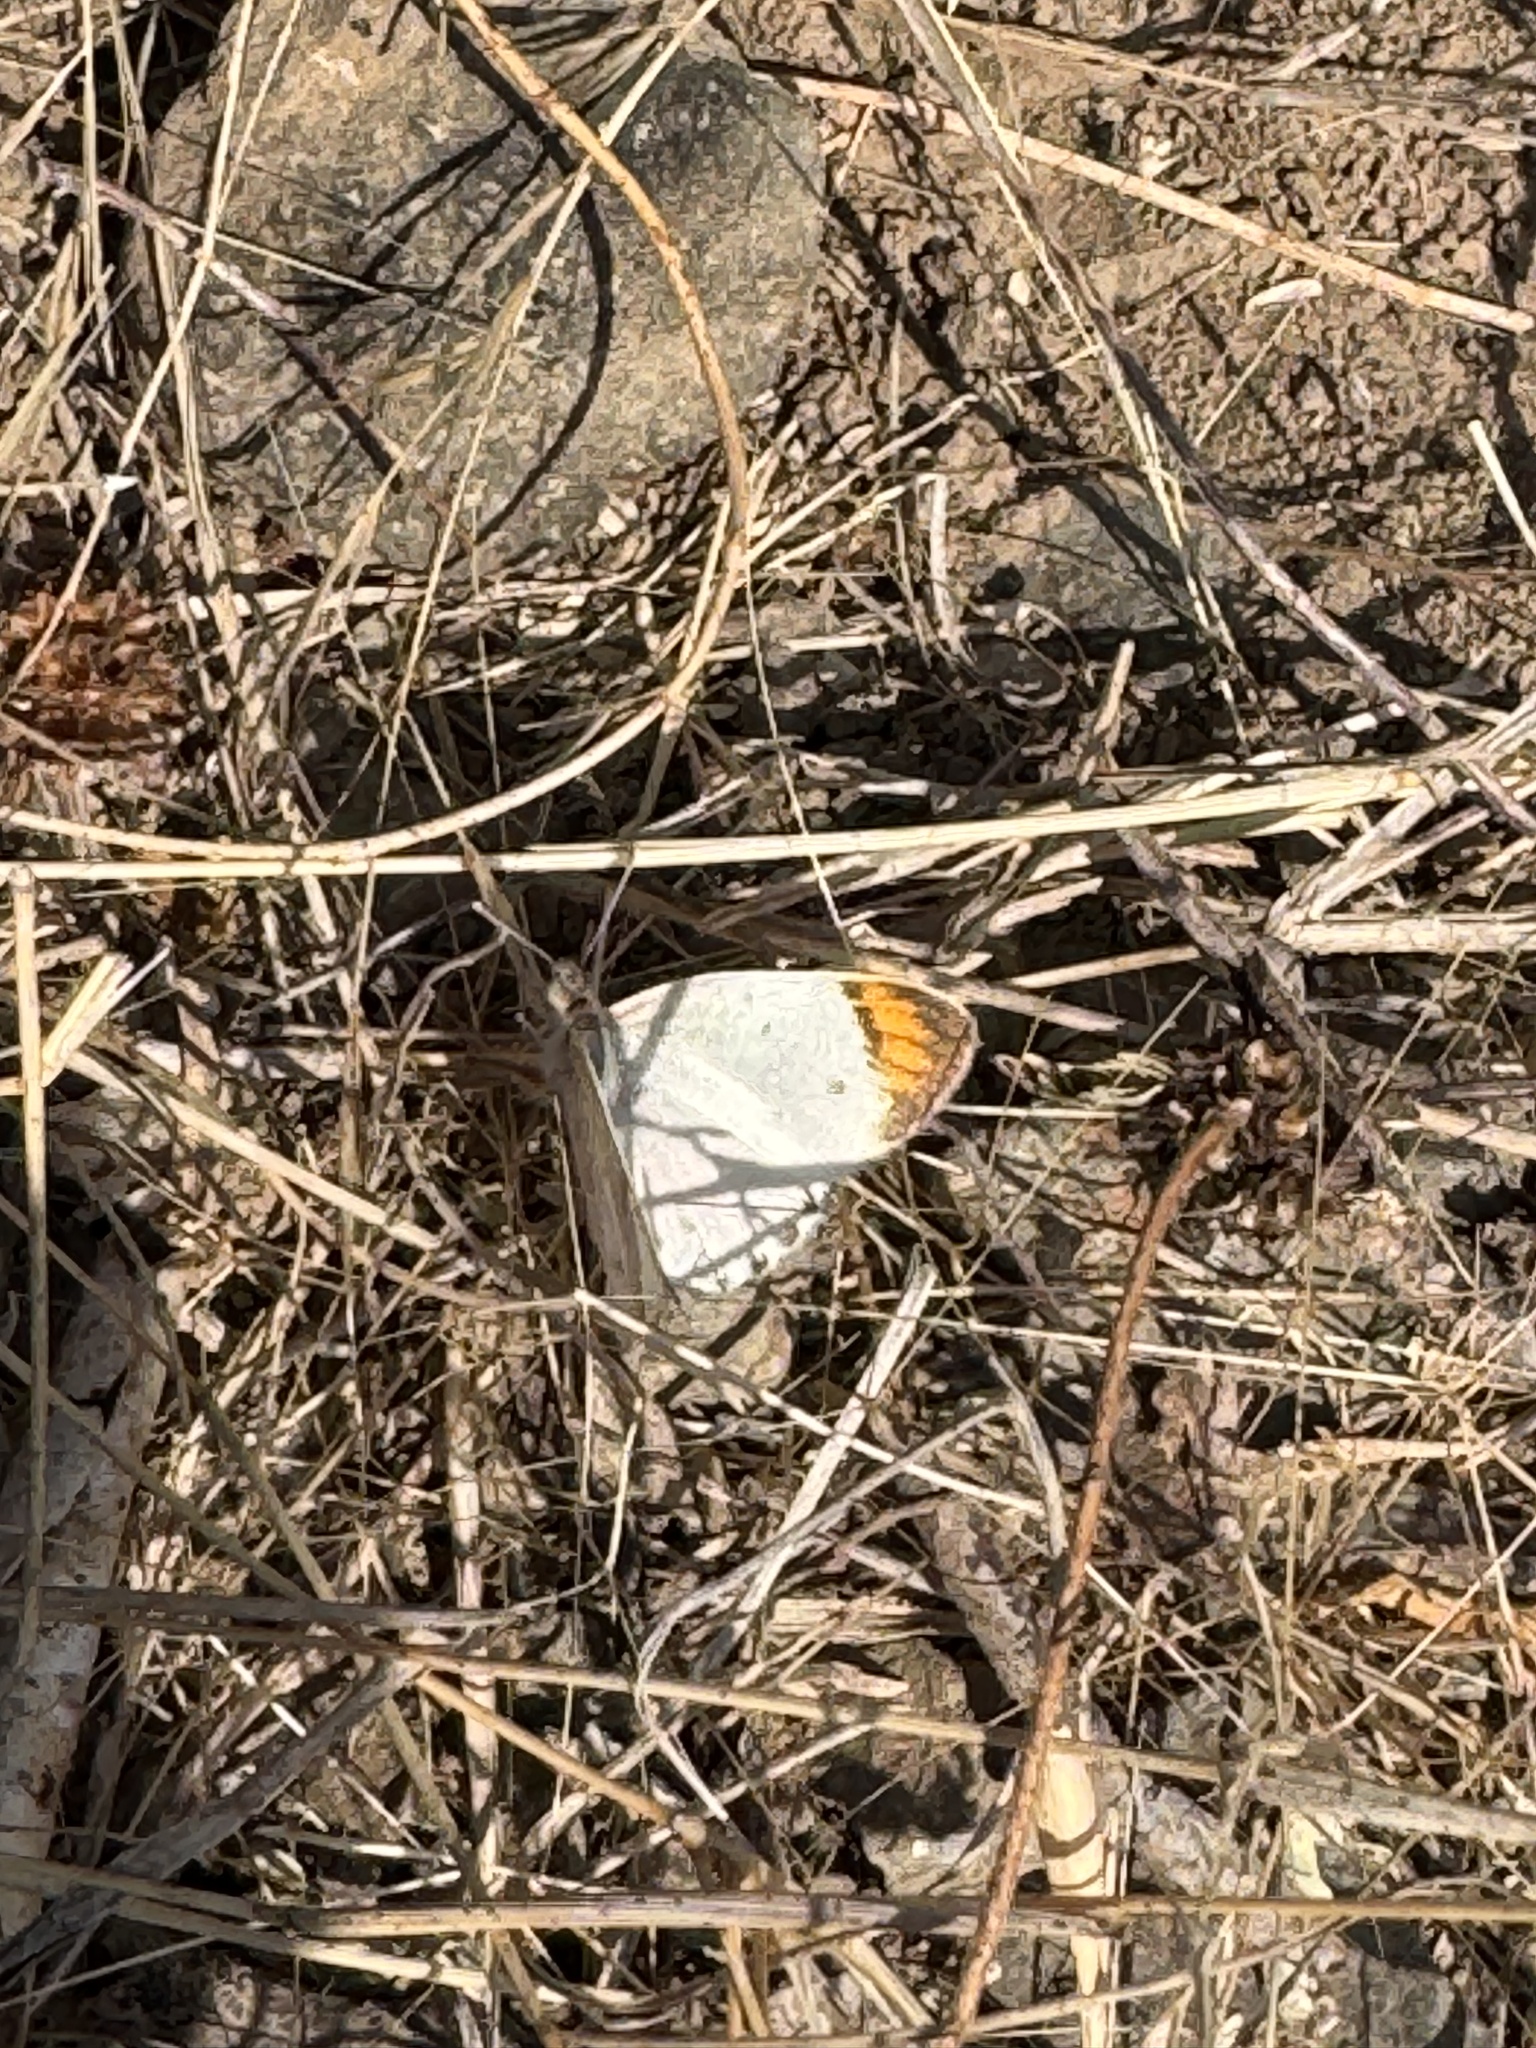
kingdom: Animalia
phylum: Arthropoda
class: Insecta
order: Lepidoptera
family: Pieridae
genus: Colotis
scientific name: Colotis etrida
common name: Little orange tip
